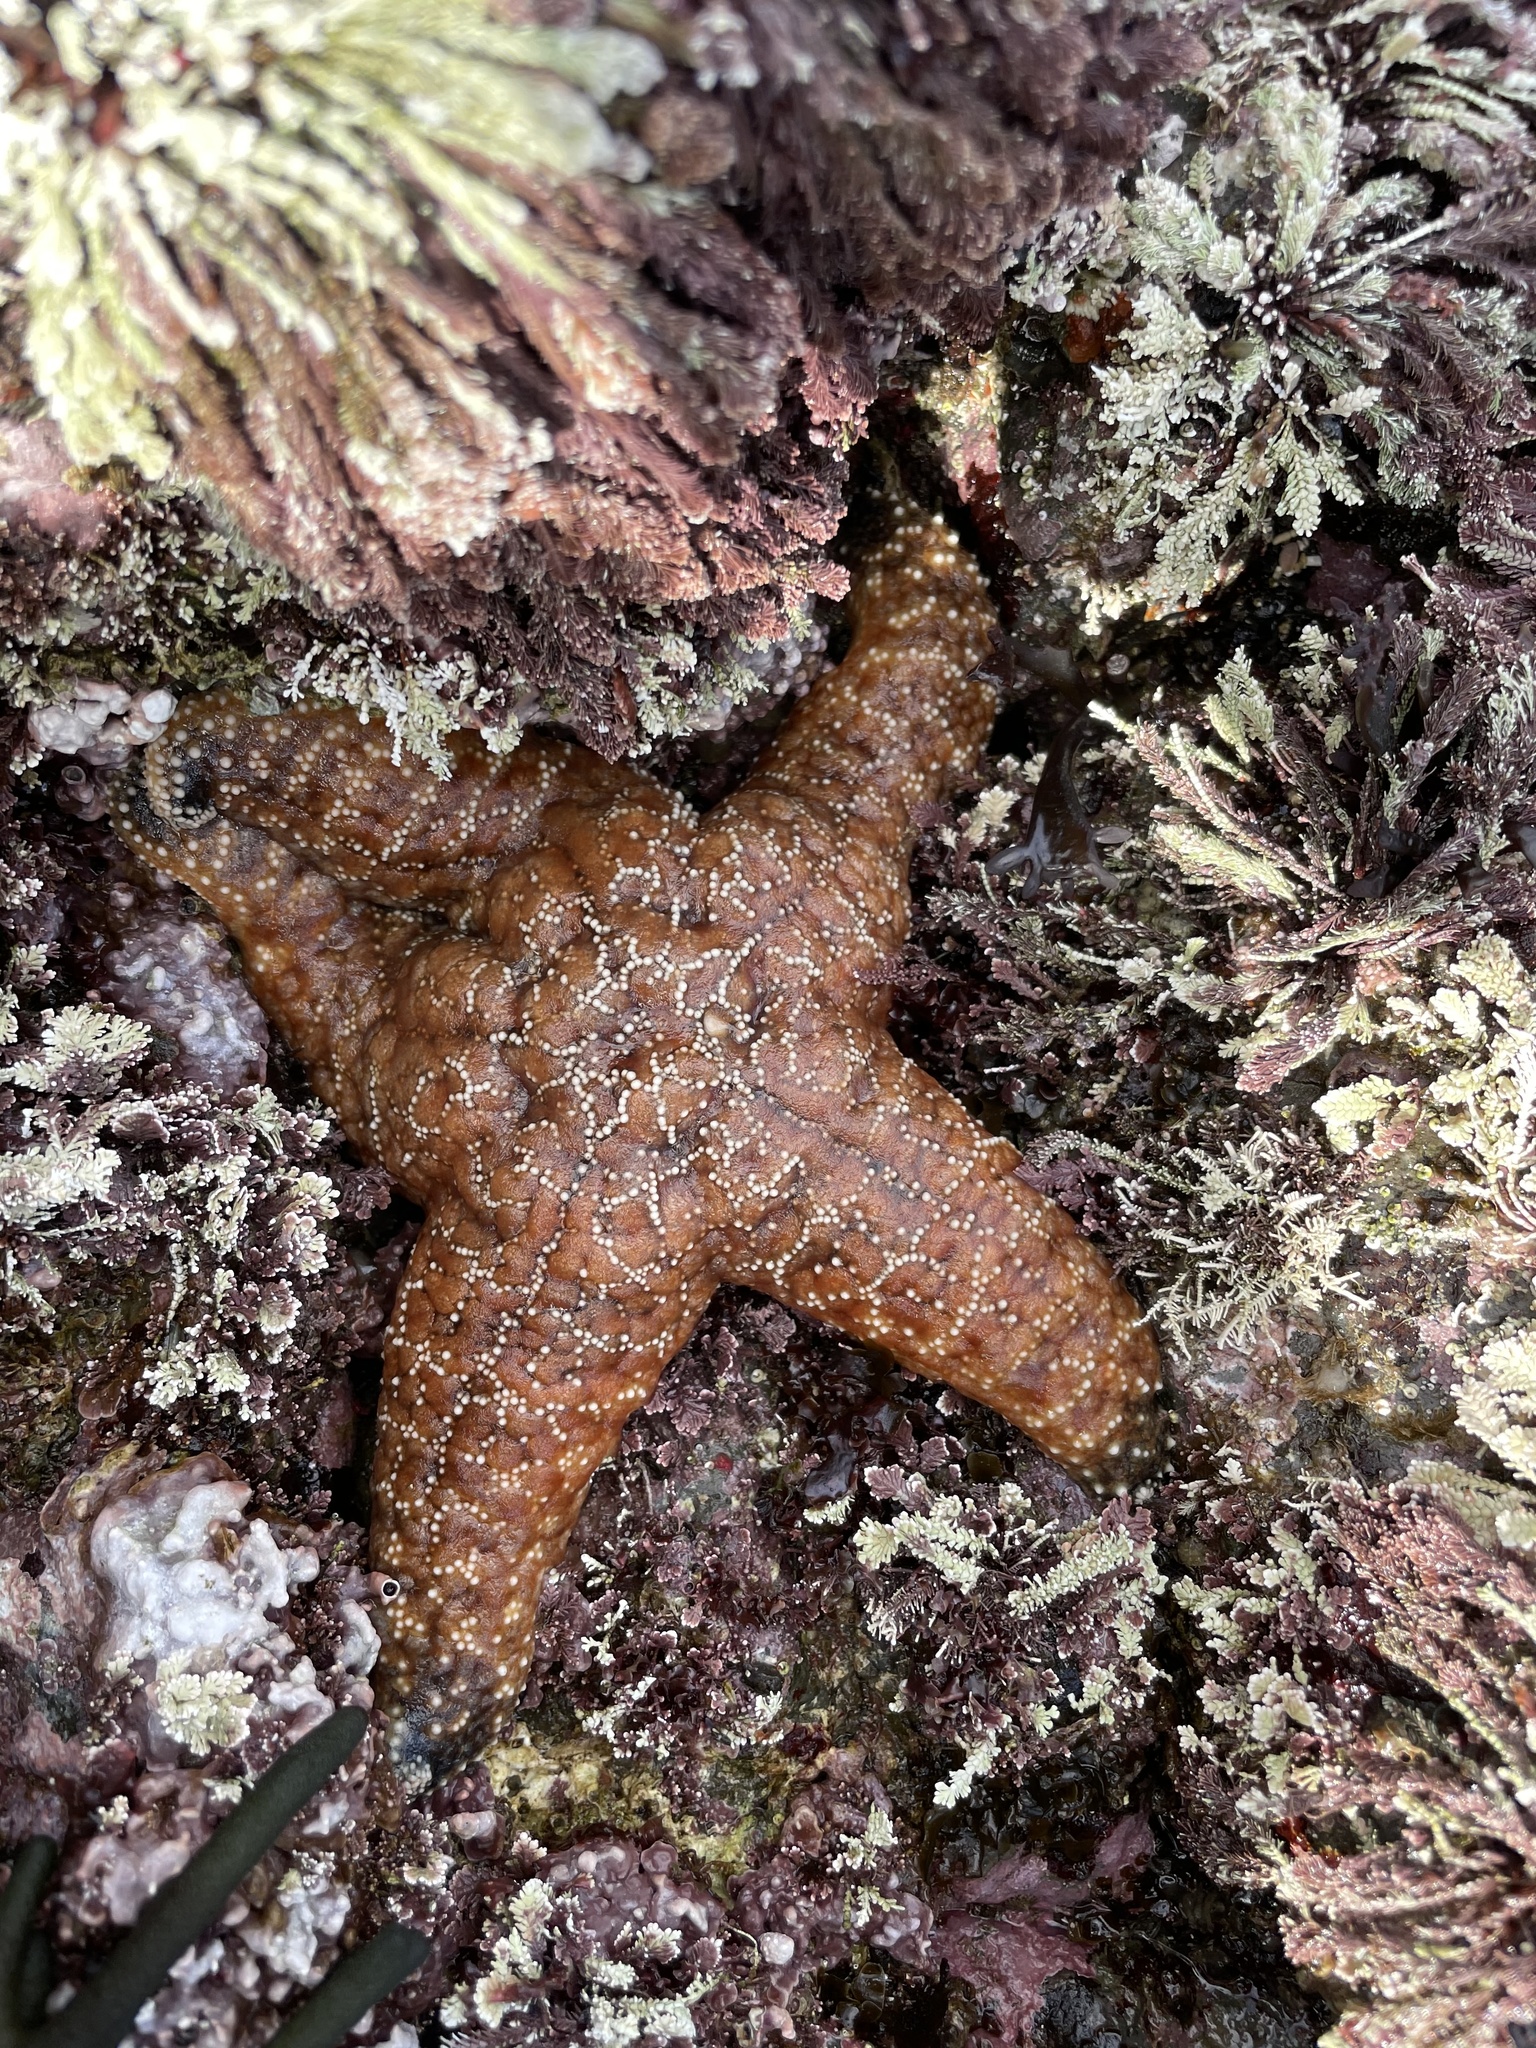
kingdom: Animalia
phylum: Echinodermata
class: Asteroidea
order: Forcipulatida
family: Asteriidae
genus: Pisaster
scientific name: Pisaster ochraceus
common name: Ochre stars
